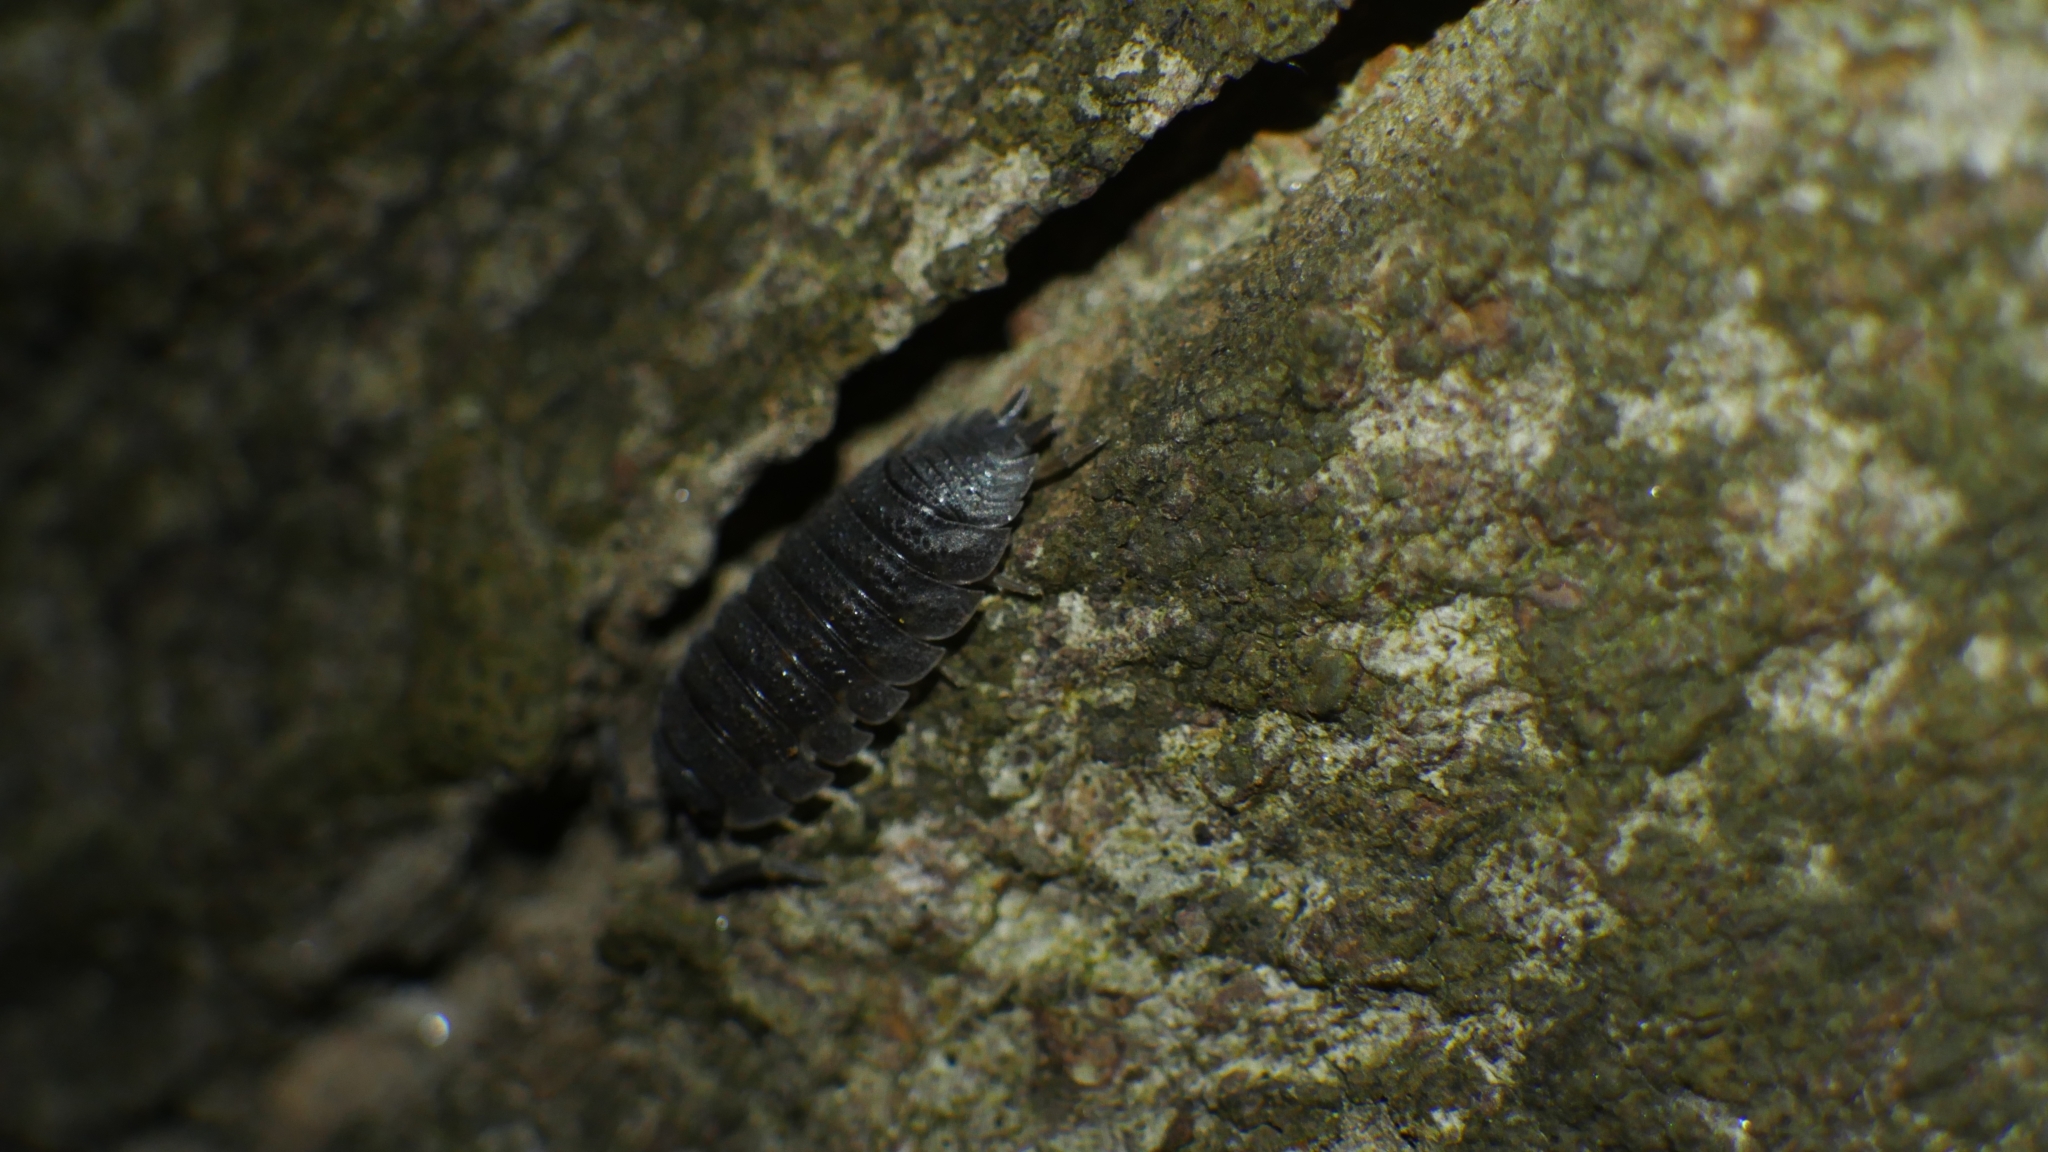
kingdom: Animalia
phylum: Arthropoda
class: Malacostraca
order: Isopoda
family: Porcellionidae
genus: Porcellio
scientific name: Porcellio scaber
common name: Common rough woodlouse
